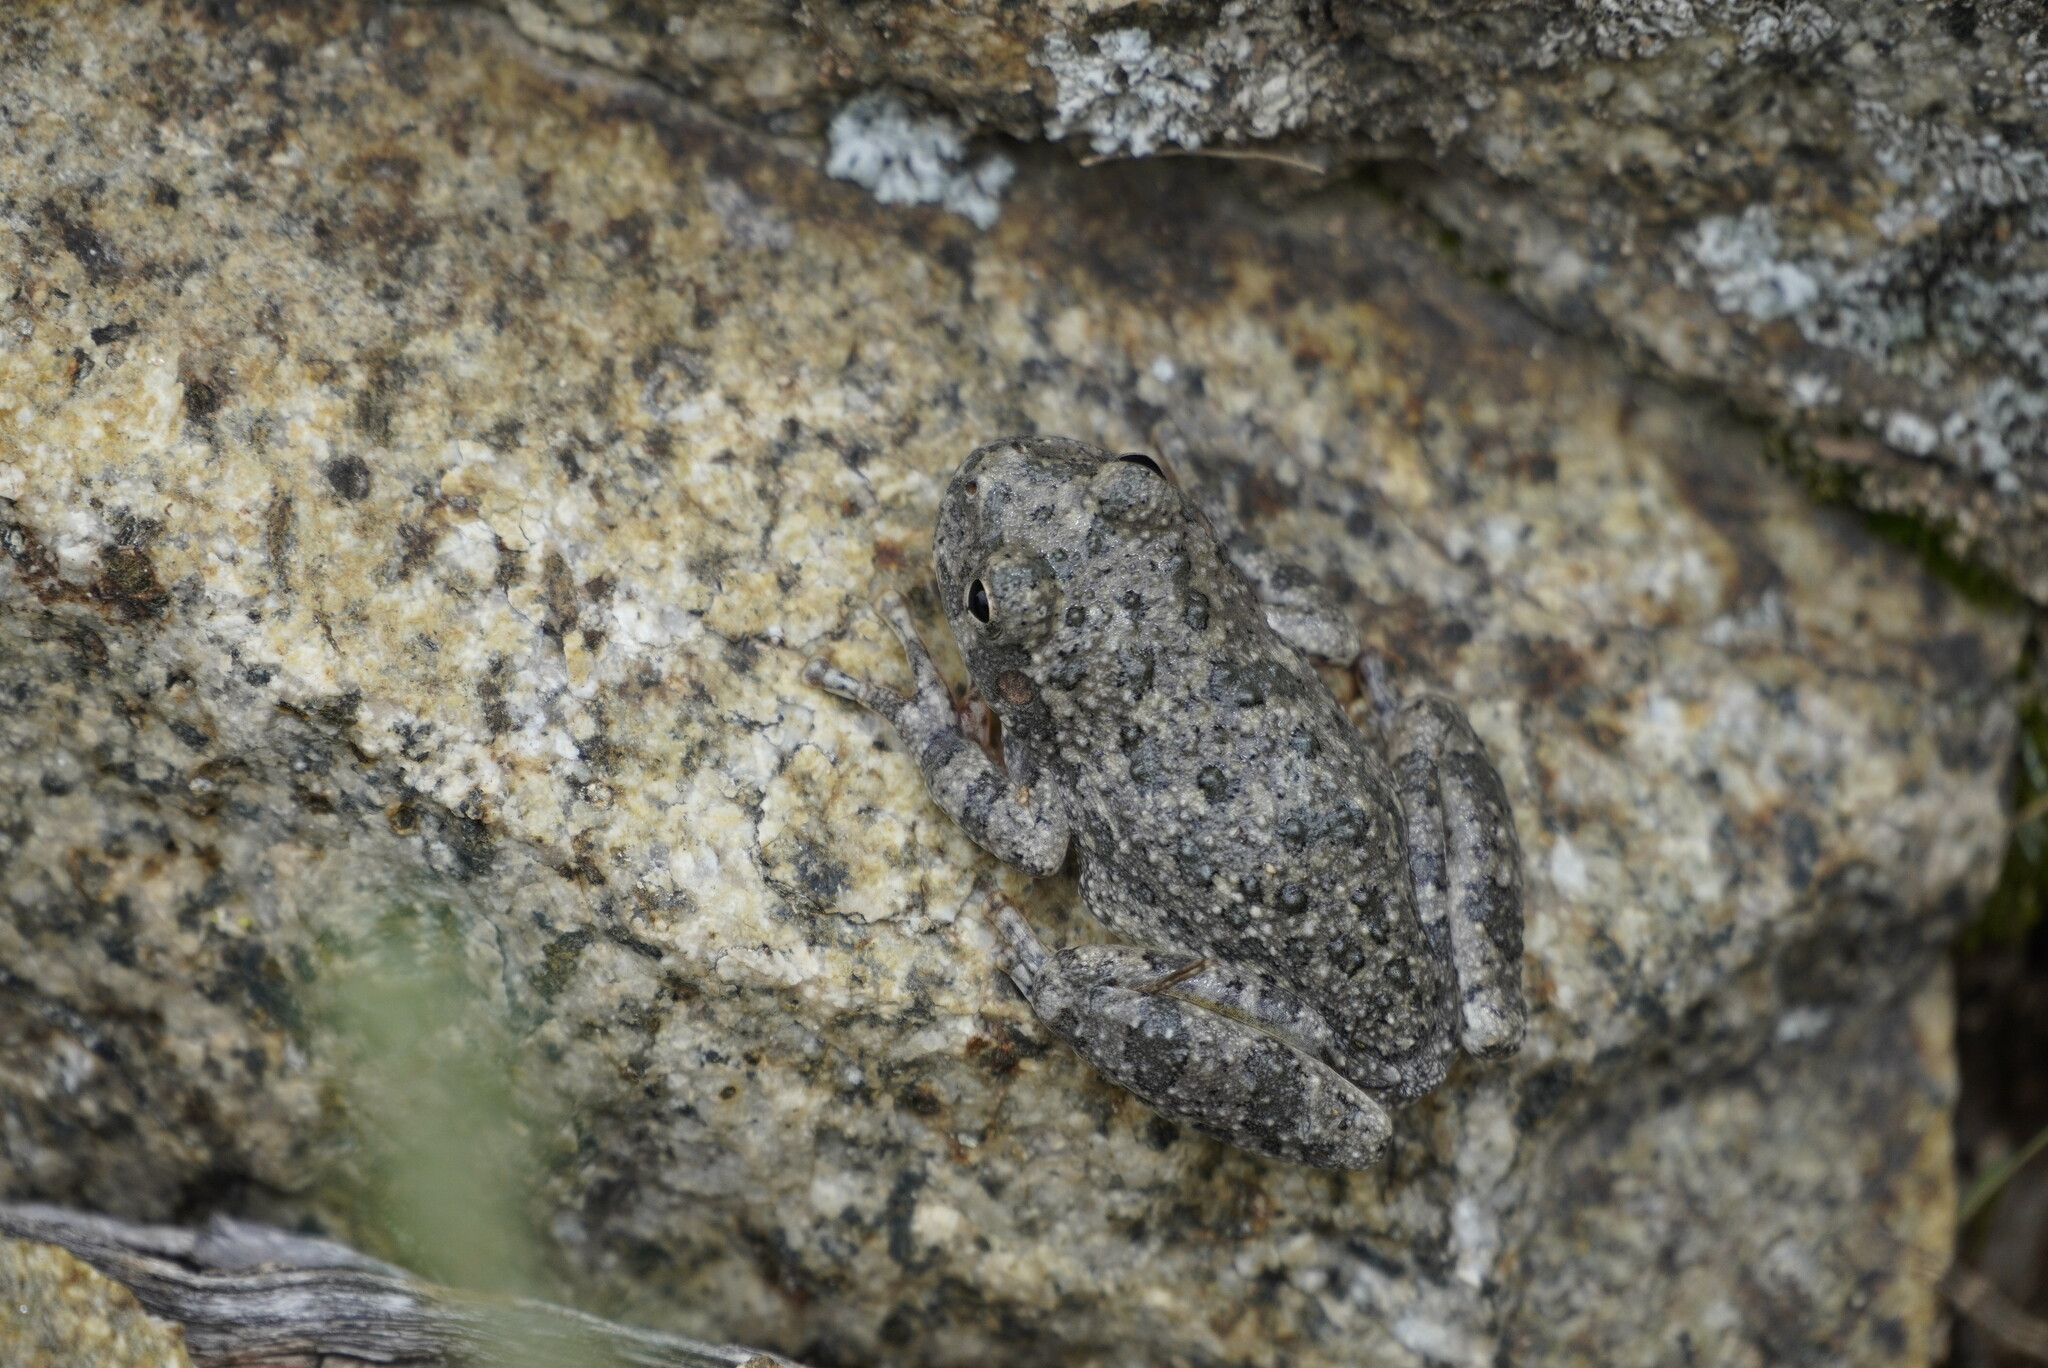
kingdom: Animalia
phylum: Chordata
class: Amphibia
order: Anura
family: Hylidae
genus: Dryophytes
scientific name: Dryophytes arenicolor
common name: Canyon treefrog
